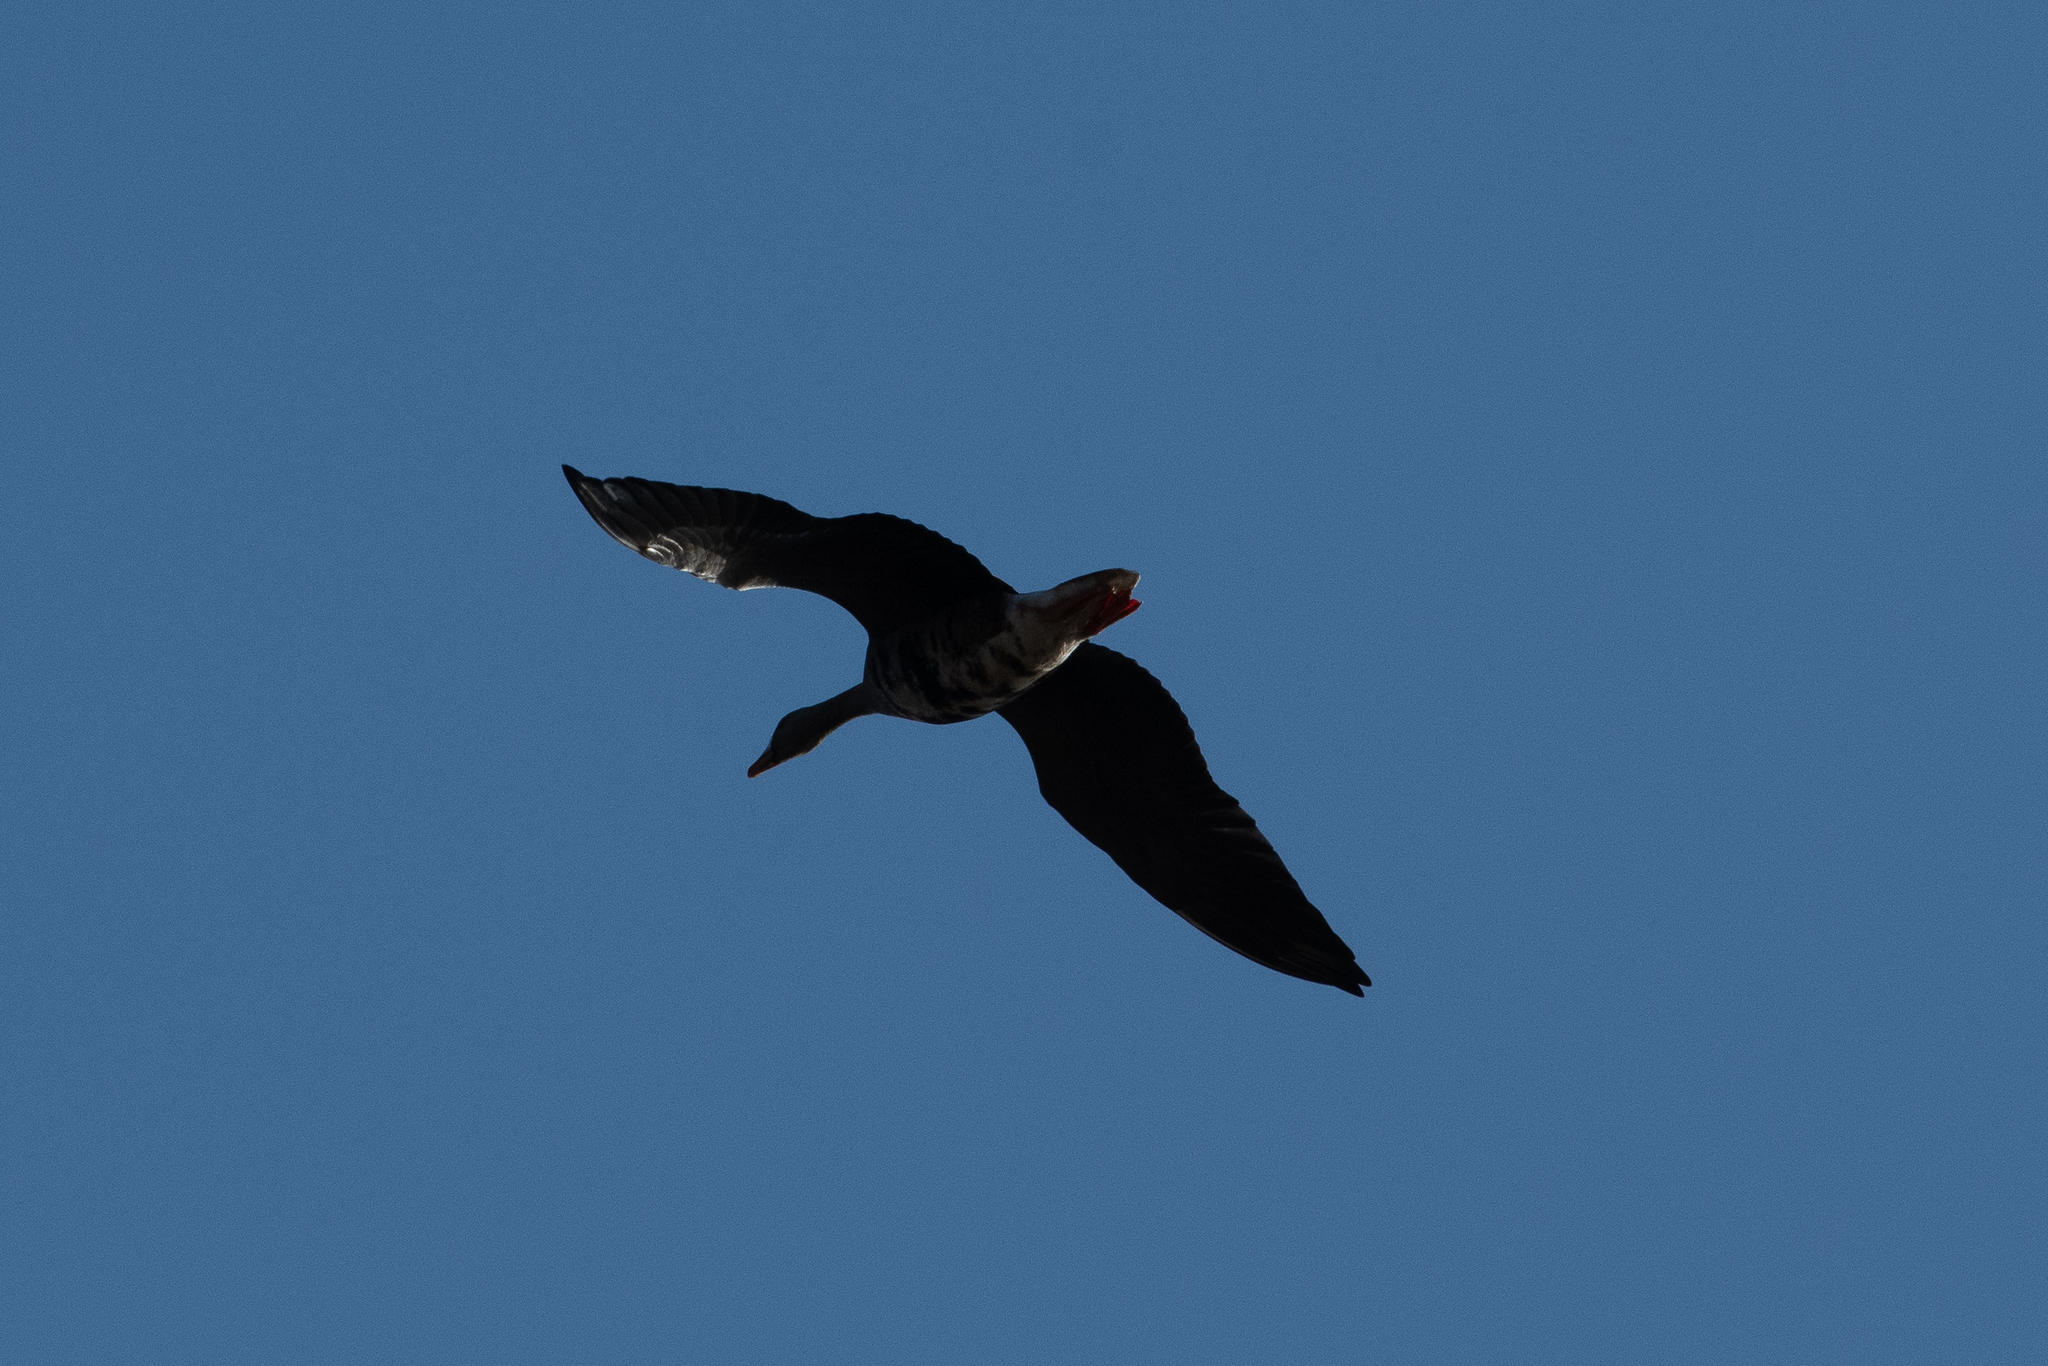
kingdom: Animalia
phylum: Chordata
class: Aves
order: Anseriformes
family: Anatidae
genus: Anser
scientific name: Anser albifrons
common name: Greater white-fronted goose
